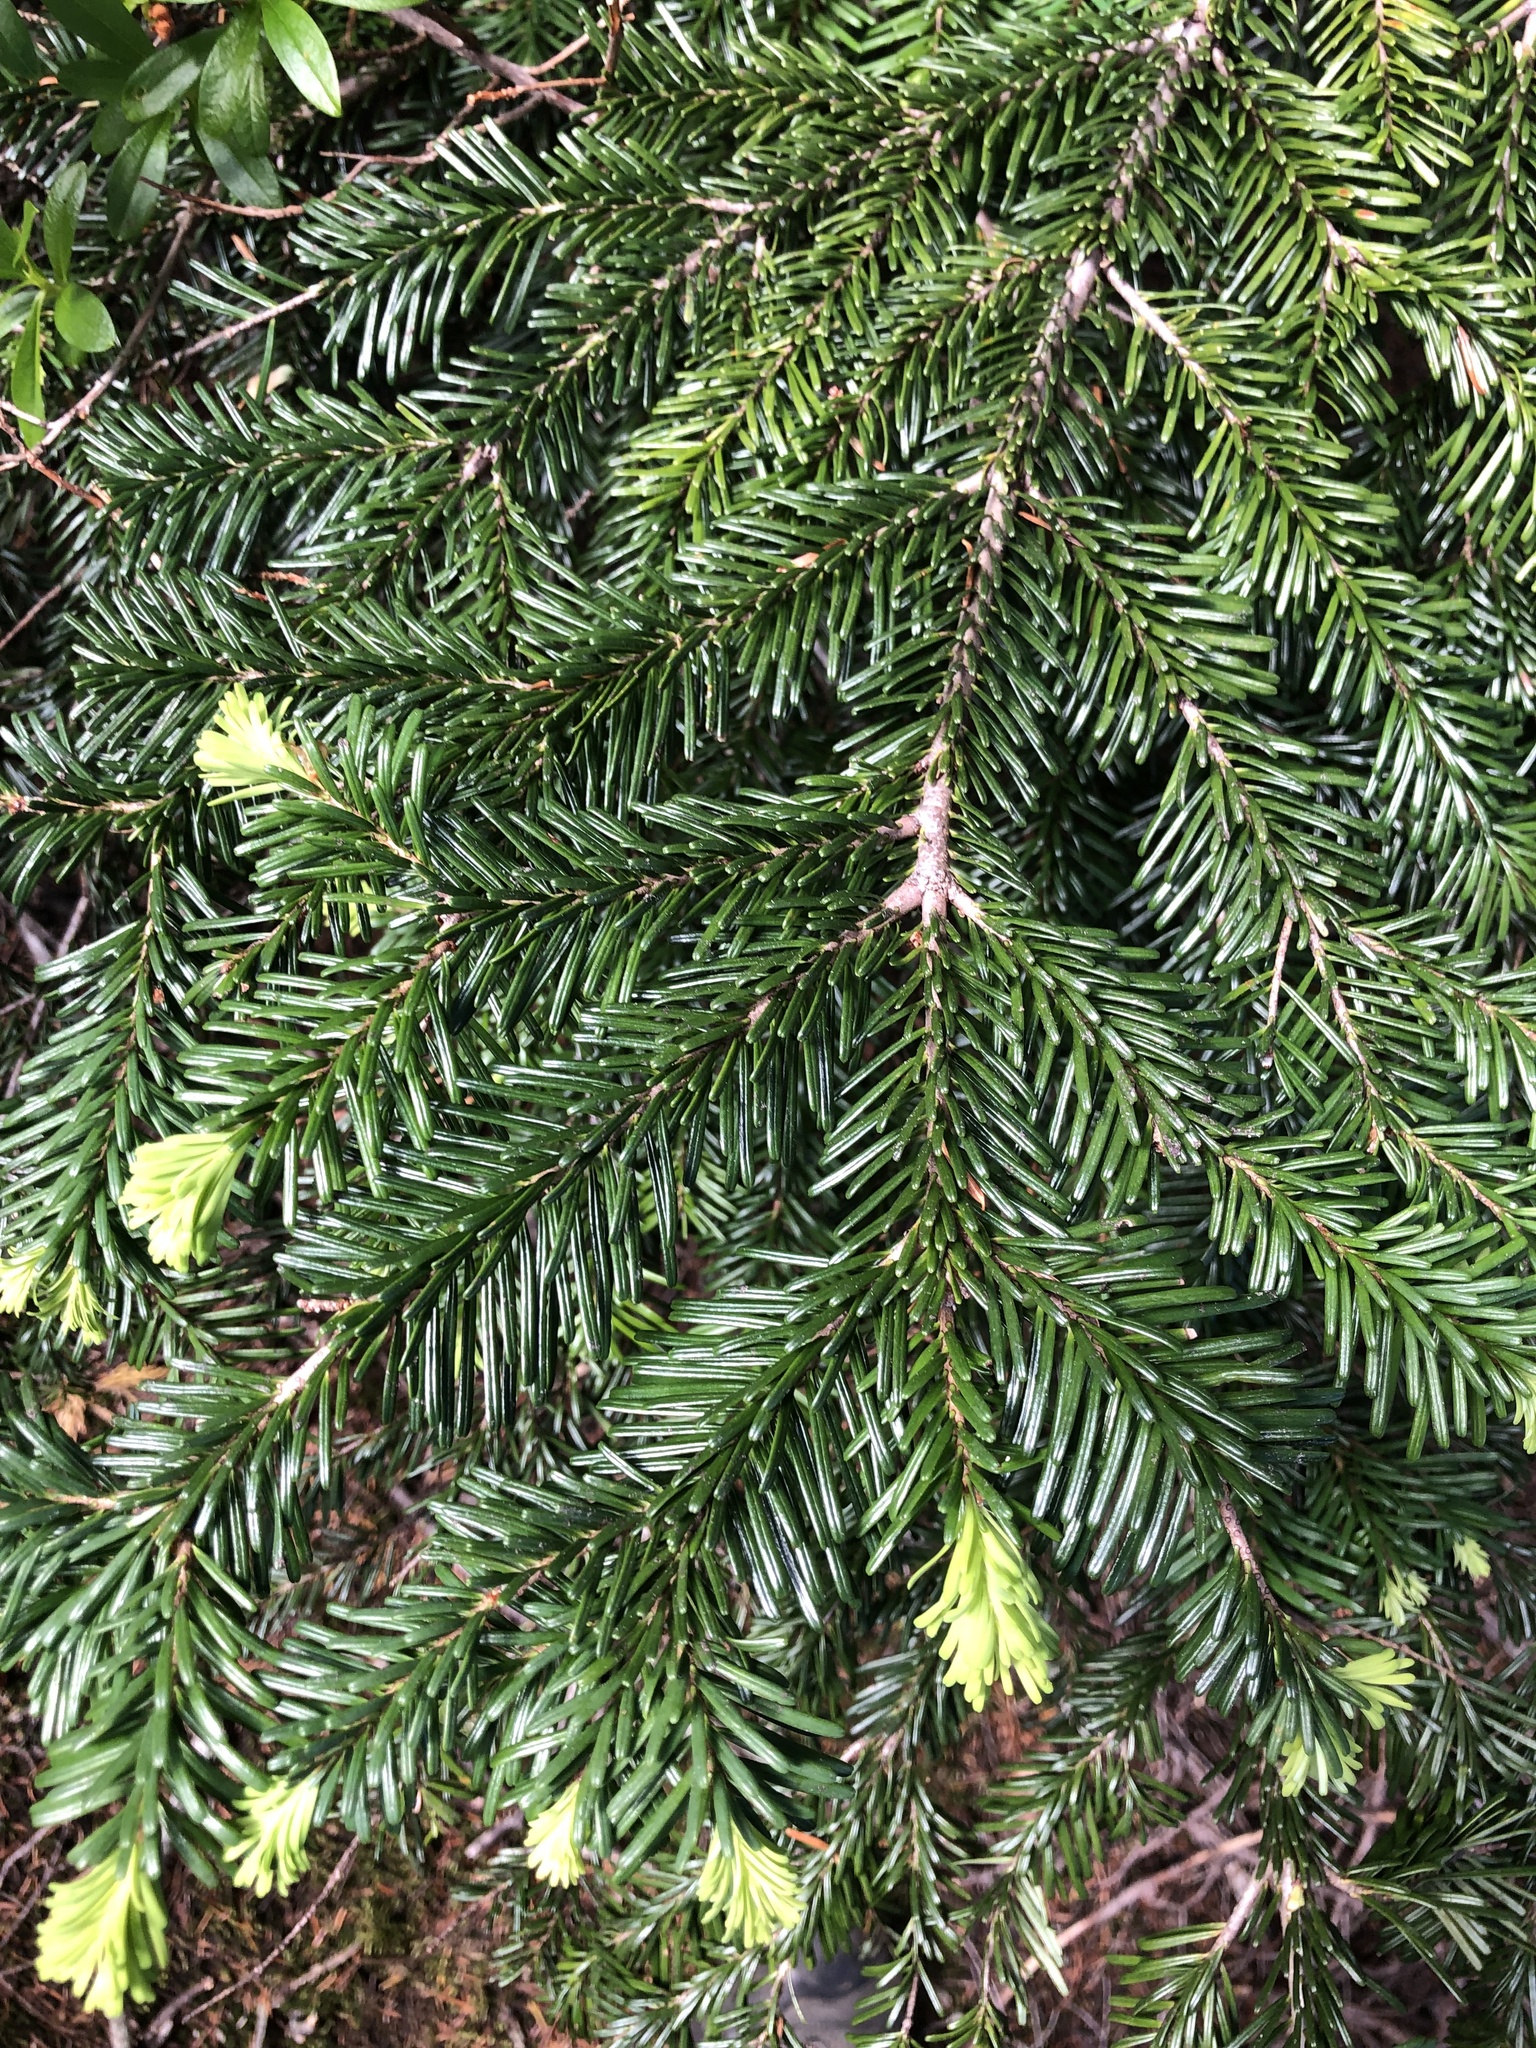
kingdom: Plantae
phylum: Tracheophyta
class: Pinopsida
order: Pinales
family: Pinaceae
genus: Abies
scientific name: Abies amabilis
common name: Pacific silver fir
